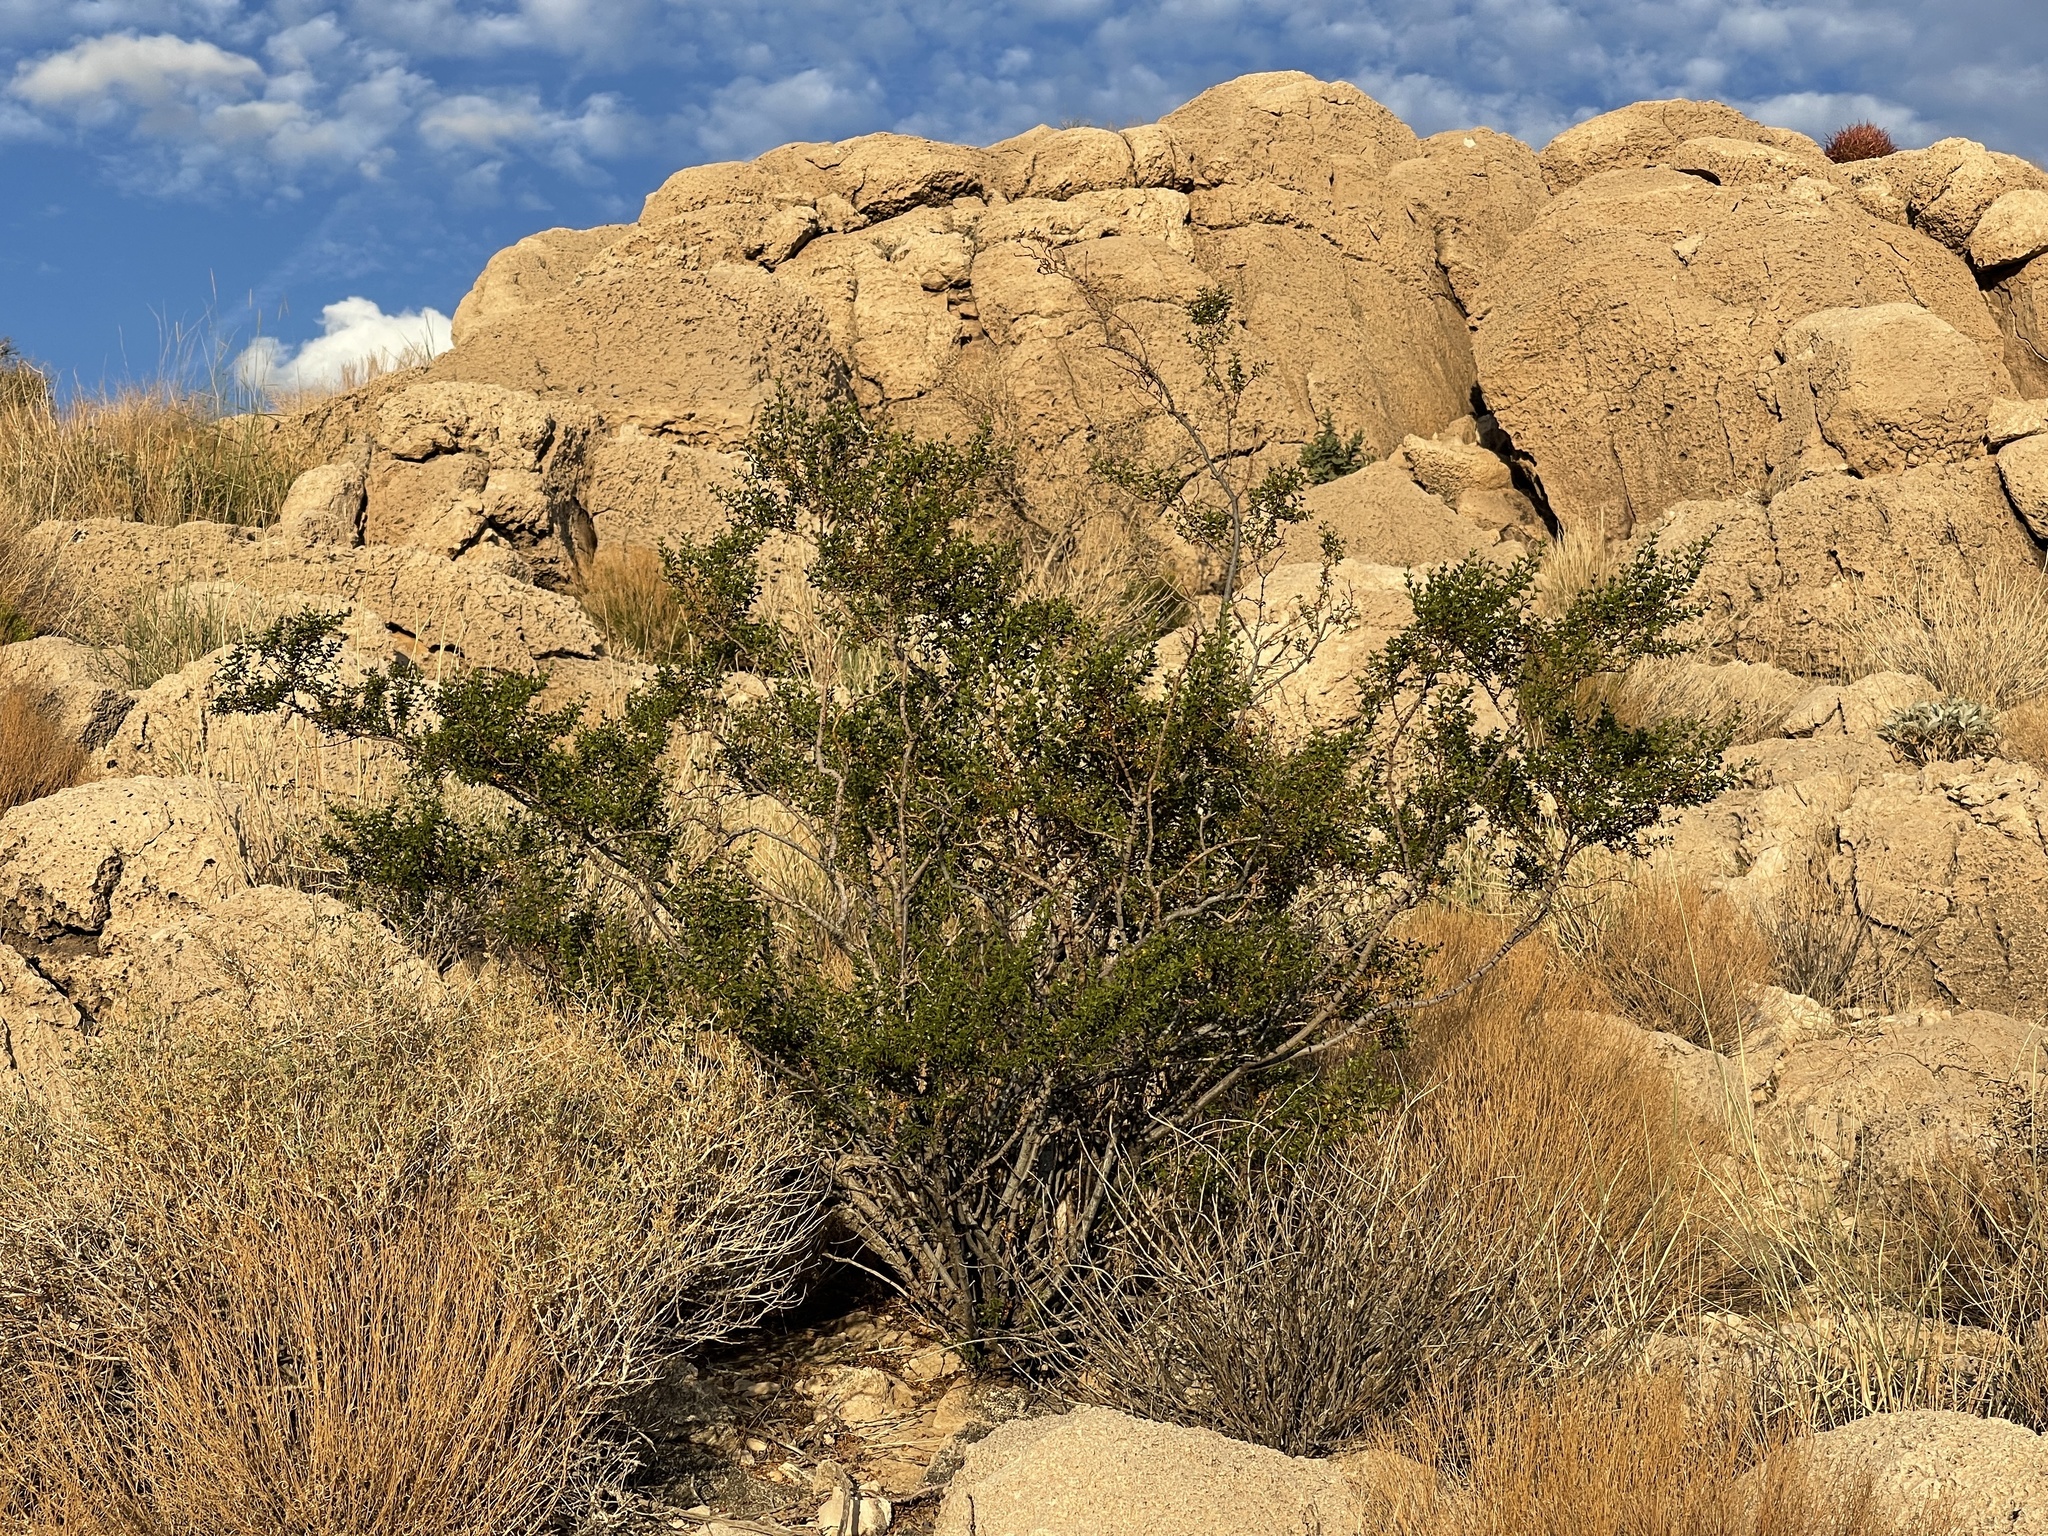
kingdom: Plantae
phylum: Tracheophyta
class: Magnoliopsida
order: Zygophyllales
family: Zygophyllaceae
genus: Larrea
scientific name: Larrea tridentata
